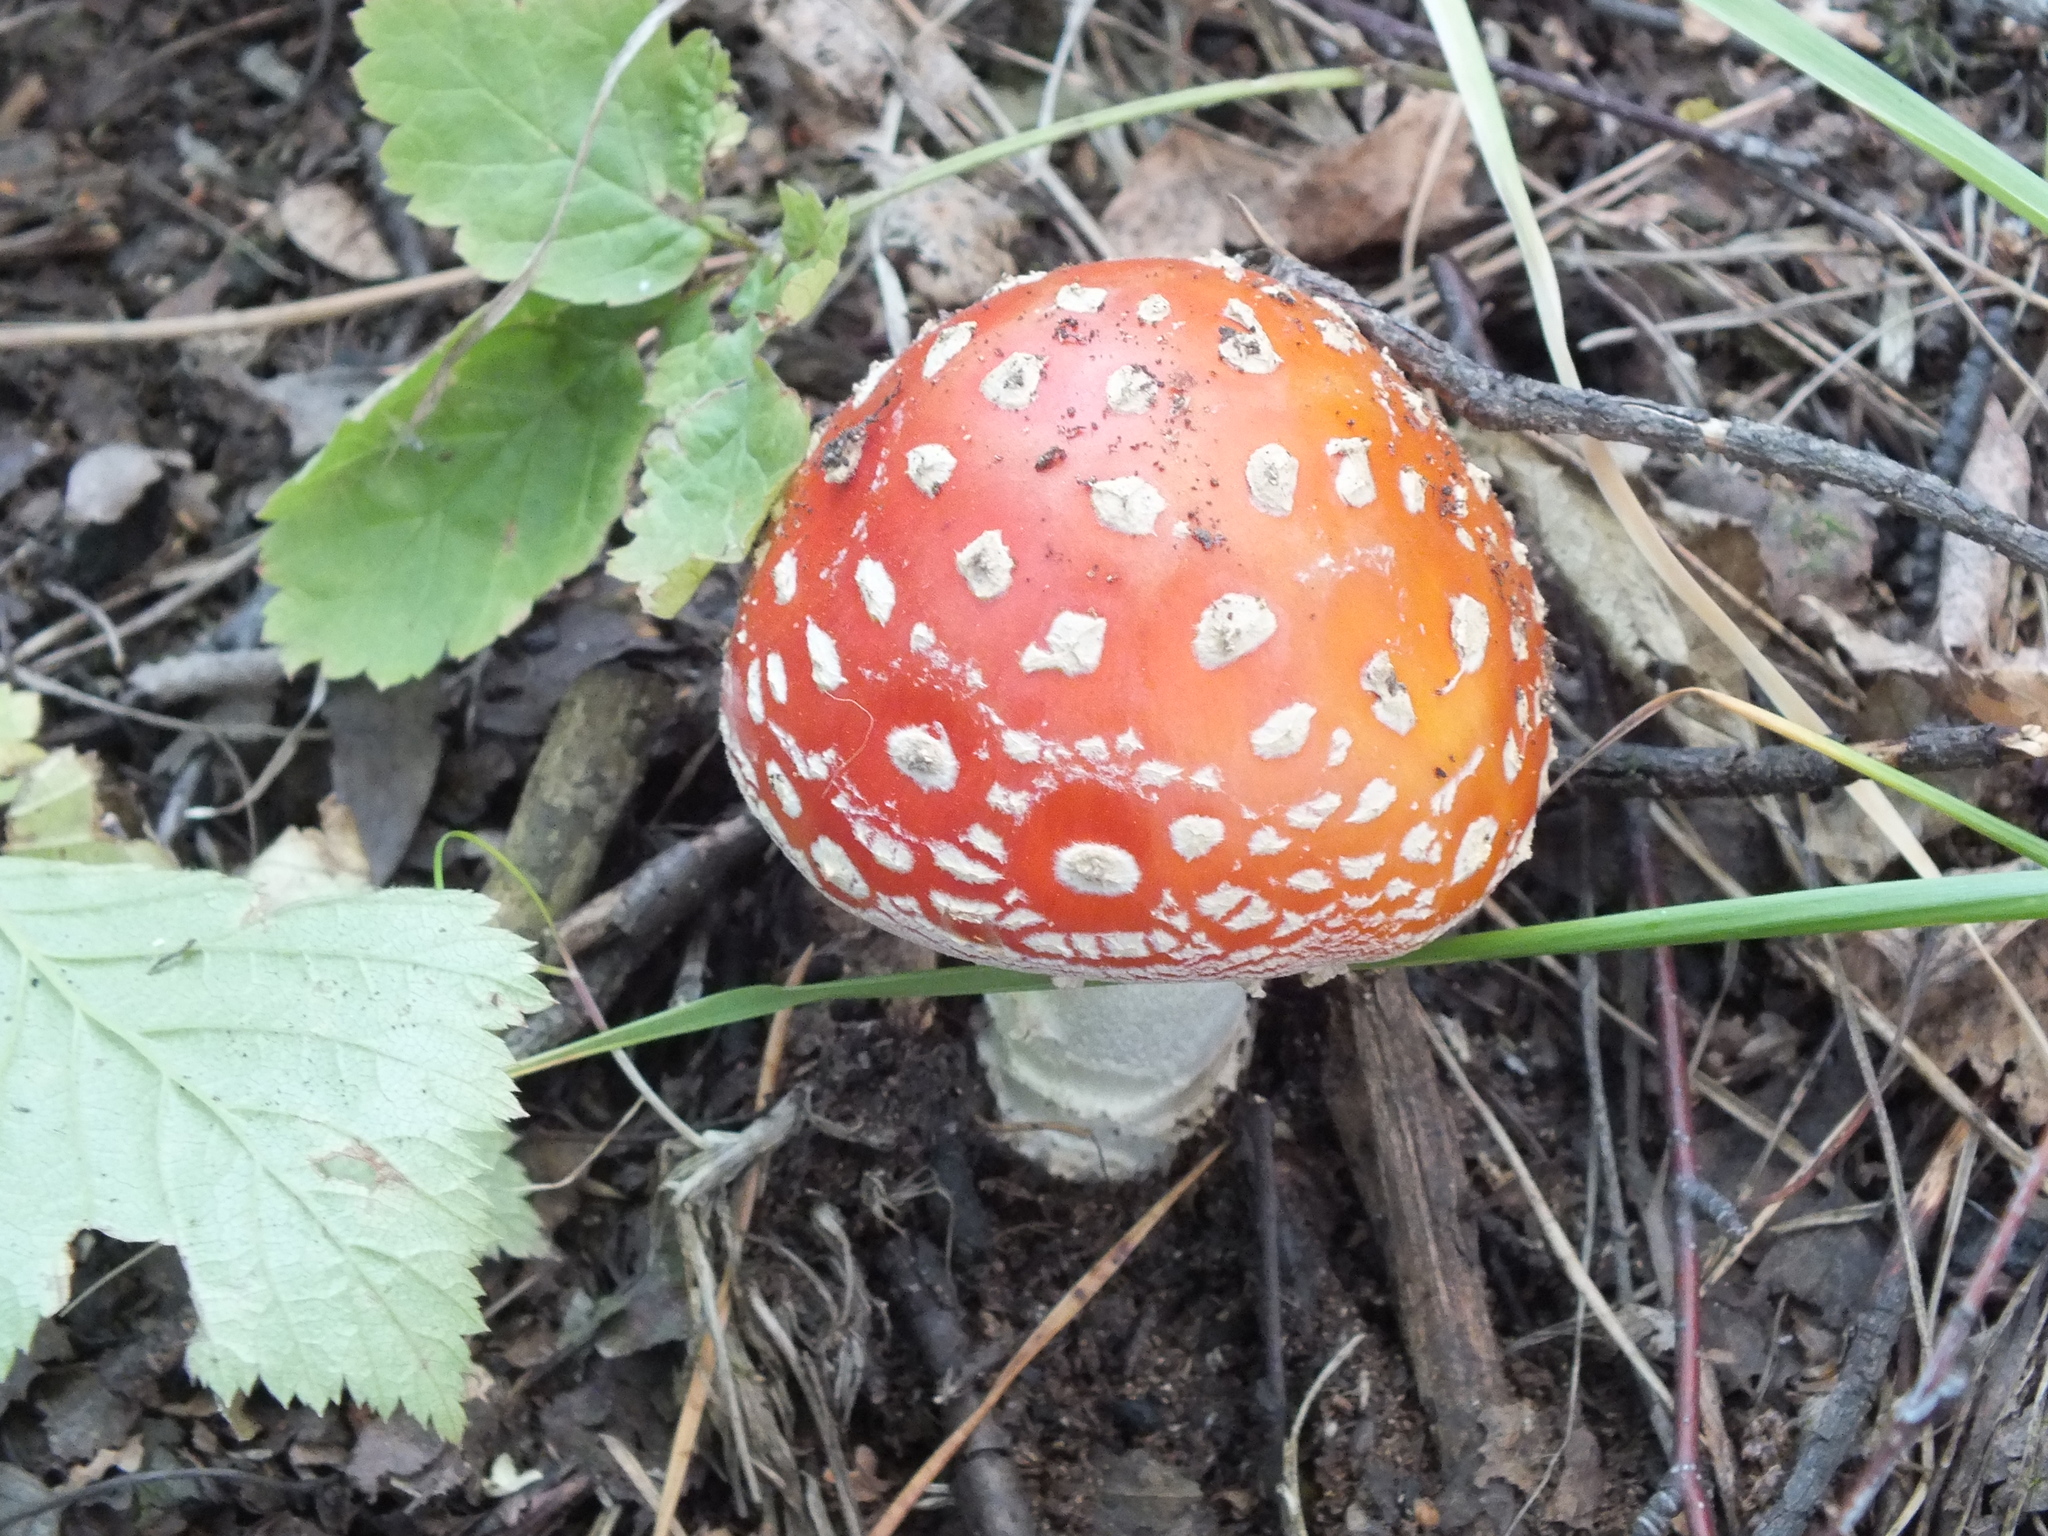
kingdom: Fungi
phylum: Basidiomycota
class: Agaricomycetes
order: Agaricales
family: Amanitaceae
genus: Amanita
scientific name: Amanita muscaria
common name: Fly agaric
